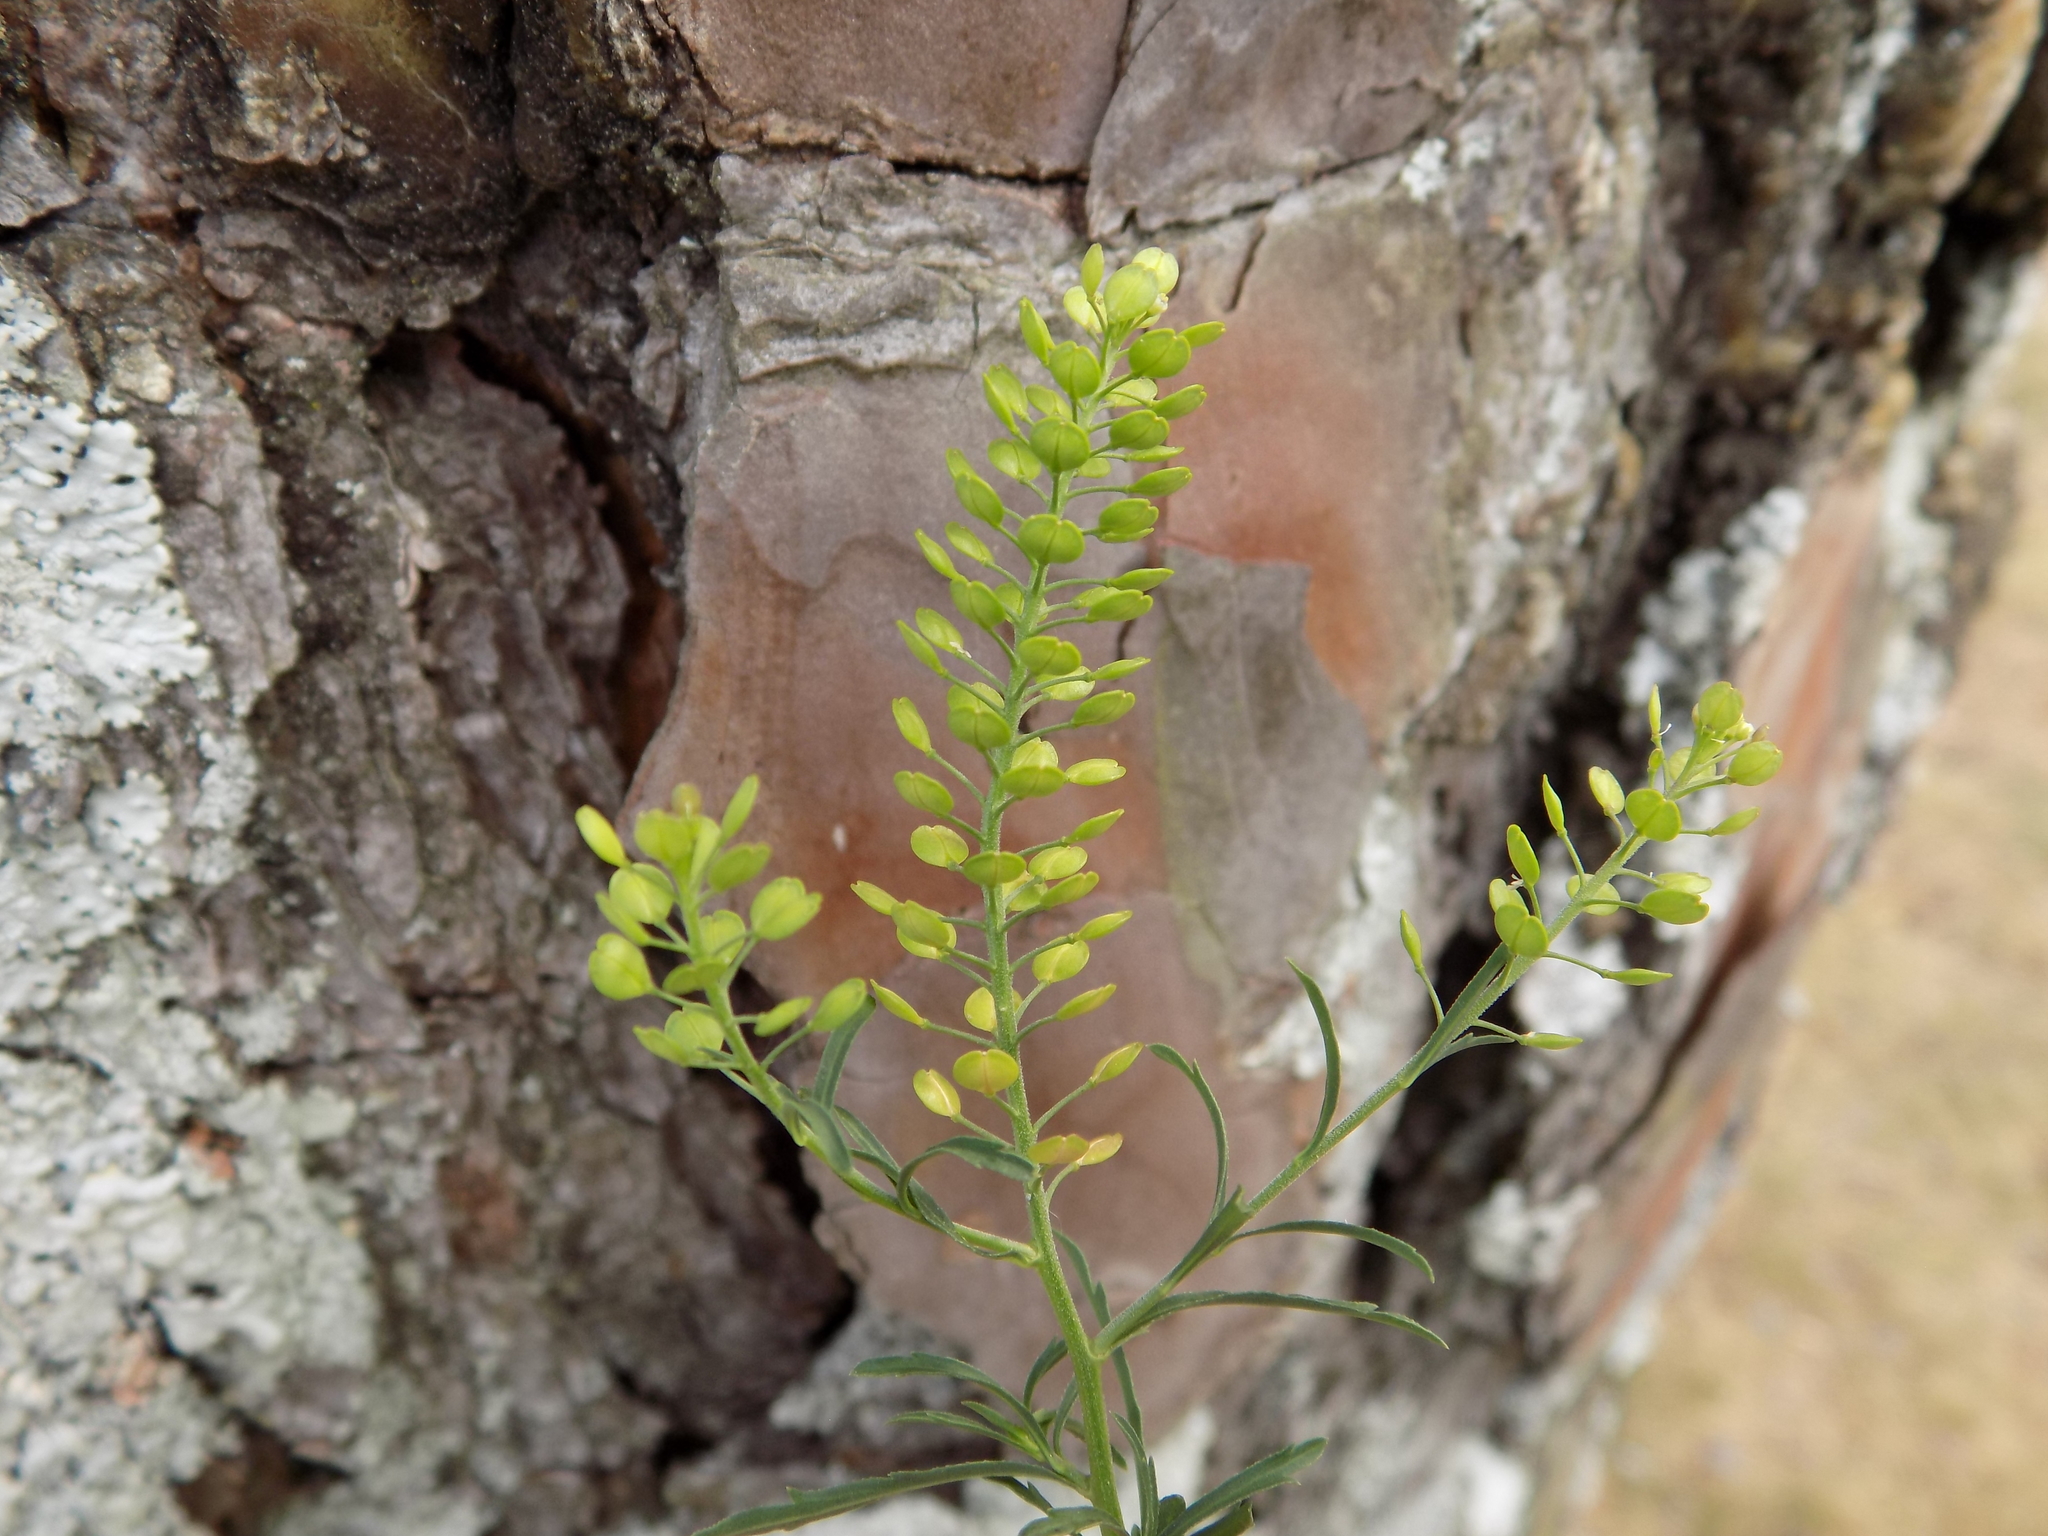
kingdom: Plantae
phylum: Tracheophyta
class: Magnoliopsida
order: Brassicales
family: Brassicaceae
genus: Lepidium
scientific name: Lepidium virginicum
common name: Least pepperwort
